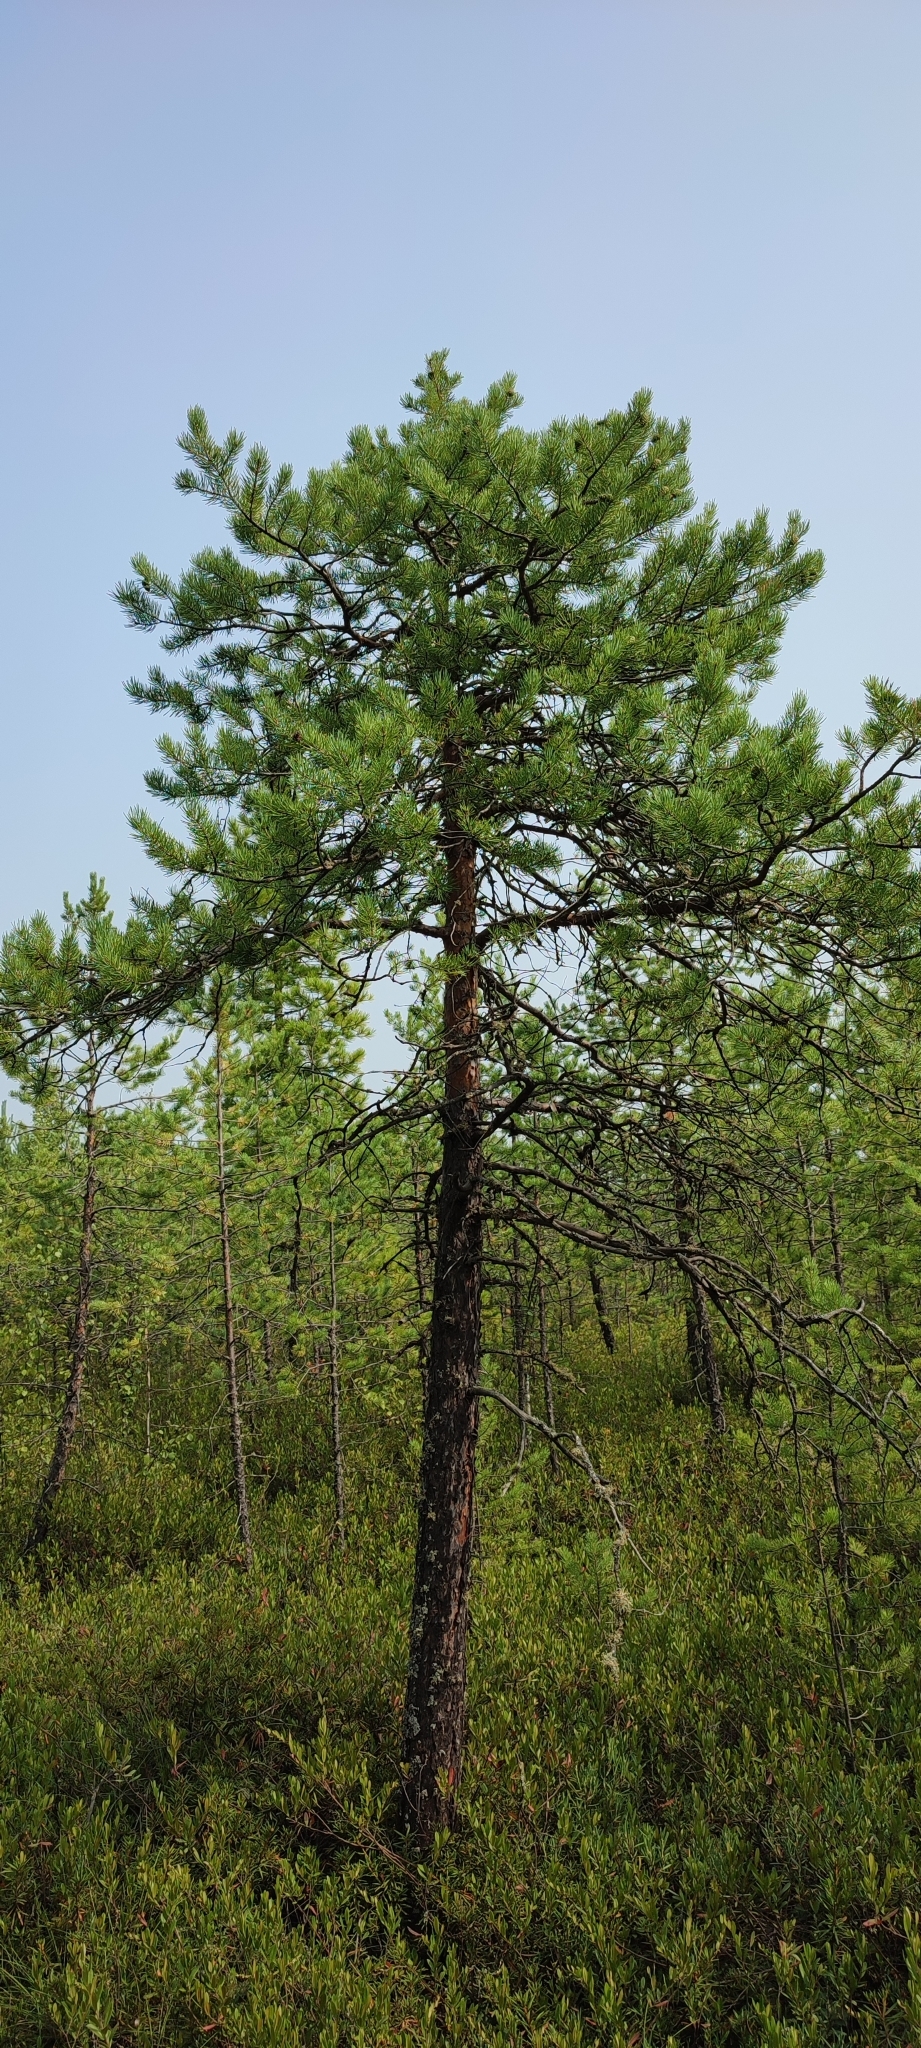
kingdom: Plantae
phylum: Tracheophyta
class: Pinopsida
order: Pinales
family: Pinaceae
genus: Pinus
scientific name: Pinus sylvestris
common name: Scots pine
